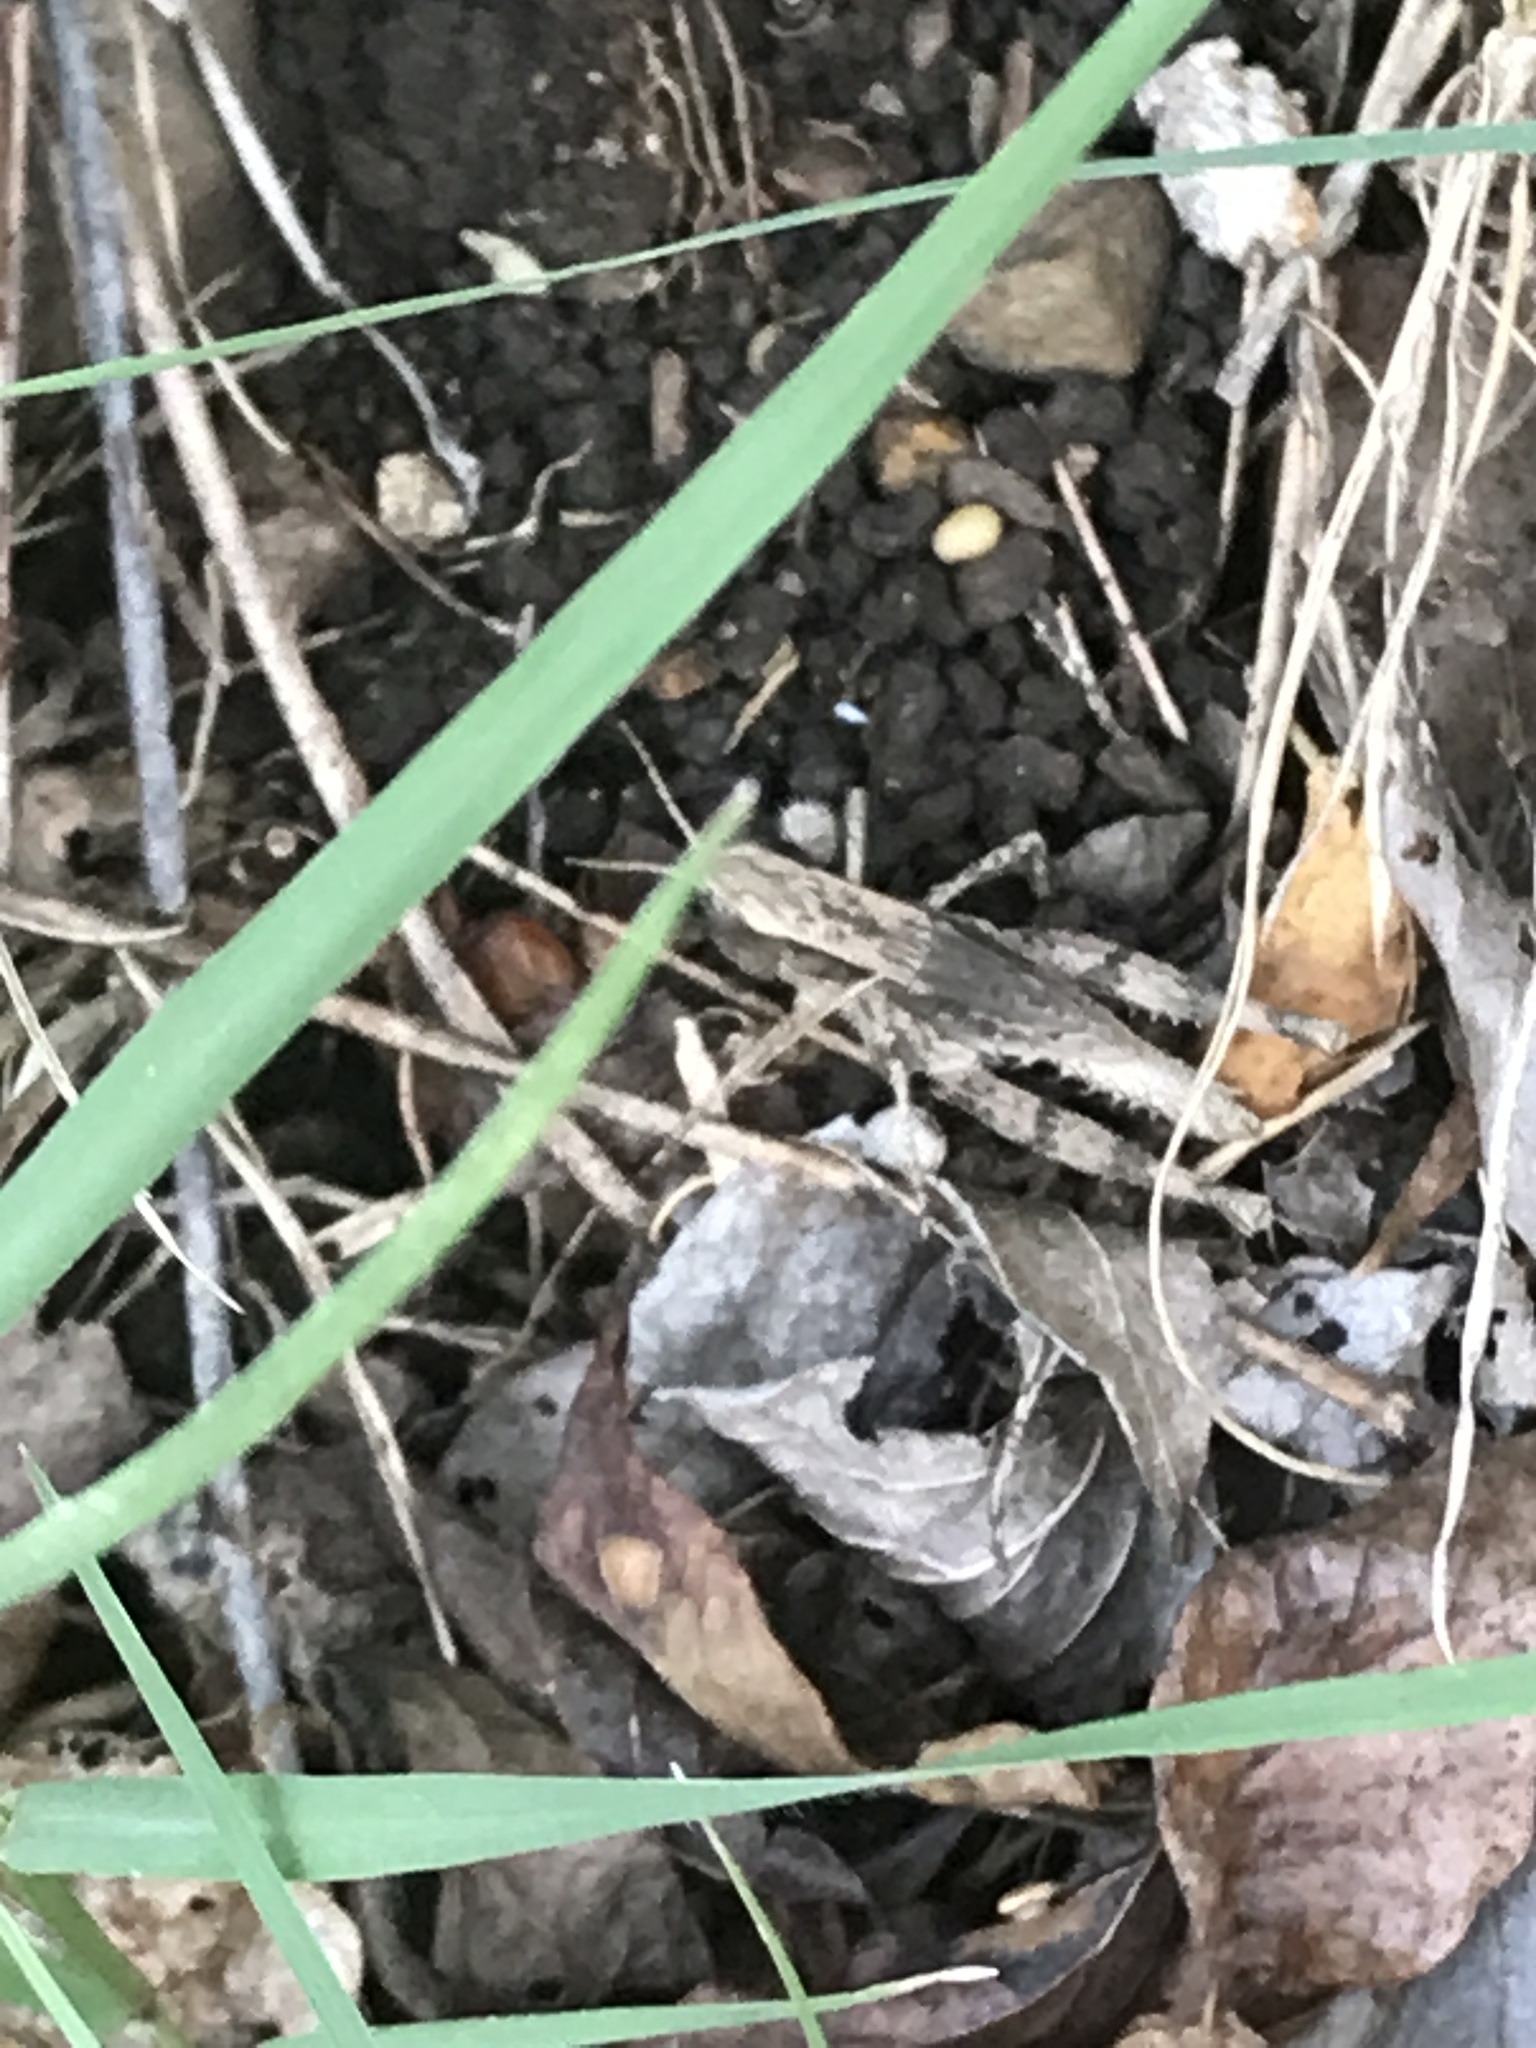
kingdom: Animalia
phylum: Arthropoda
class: Insecta
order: Orthoptera
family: Acrididae
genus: Dichromorpha
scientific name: Dichromorpha viridis
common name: Short-winged green grasshopper
